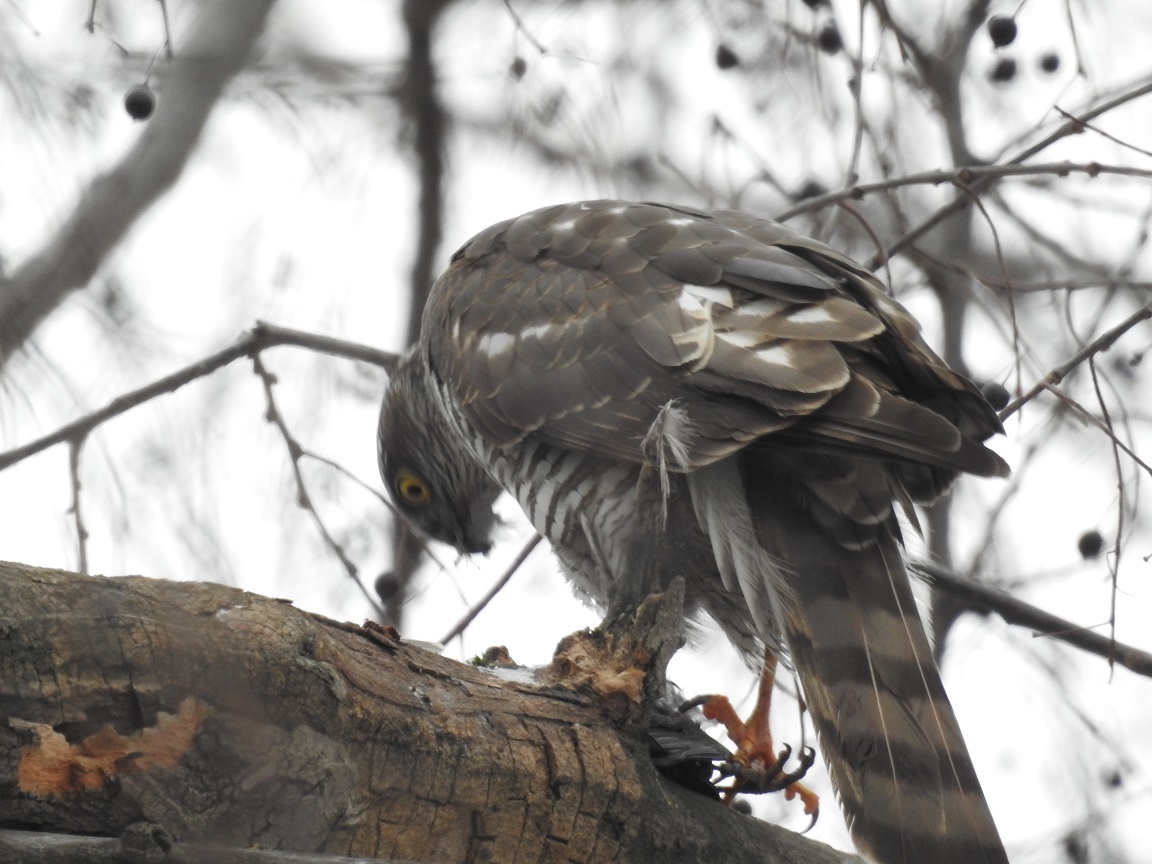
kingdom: Animalia
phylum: Chordata
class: Aves
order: Accipitriformes
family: Accipitridae
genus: Accipiter
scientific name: Accipiter nisus
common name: Eurasian sparrowhawk
